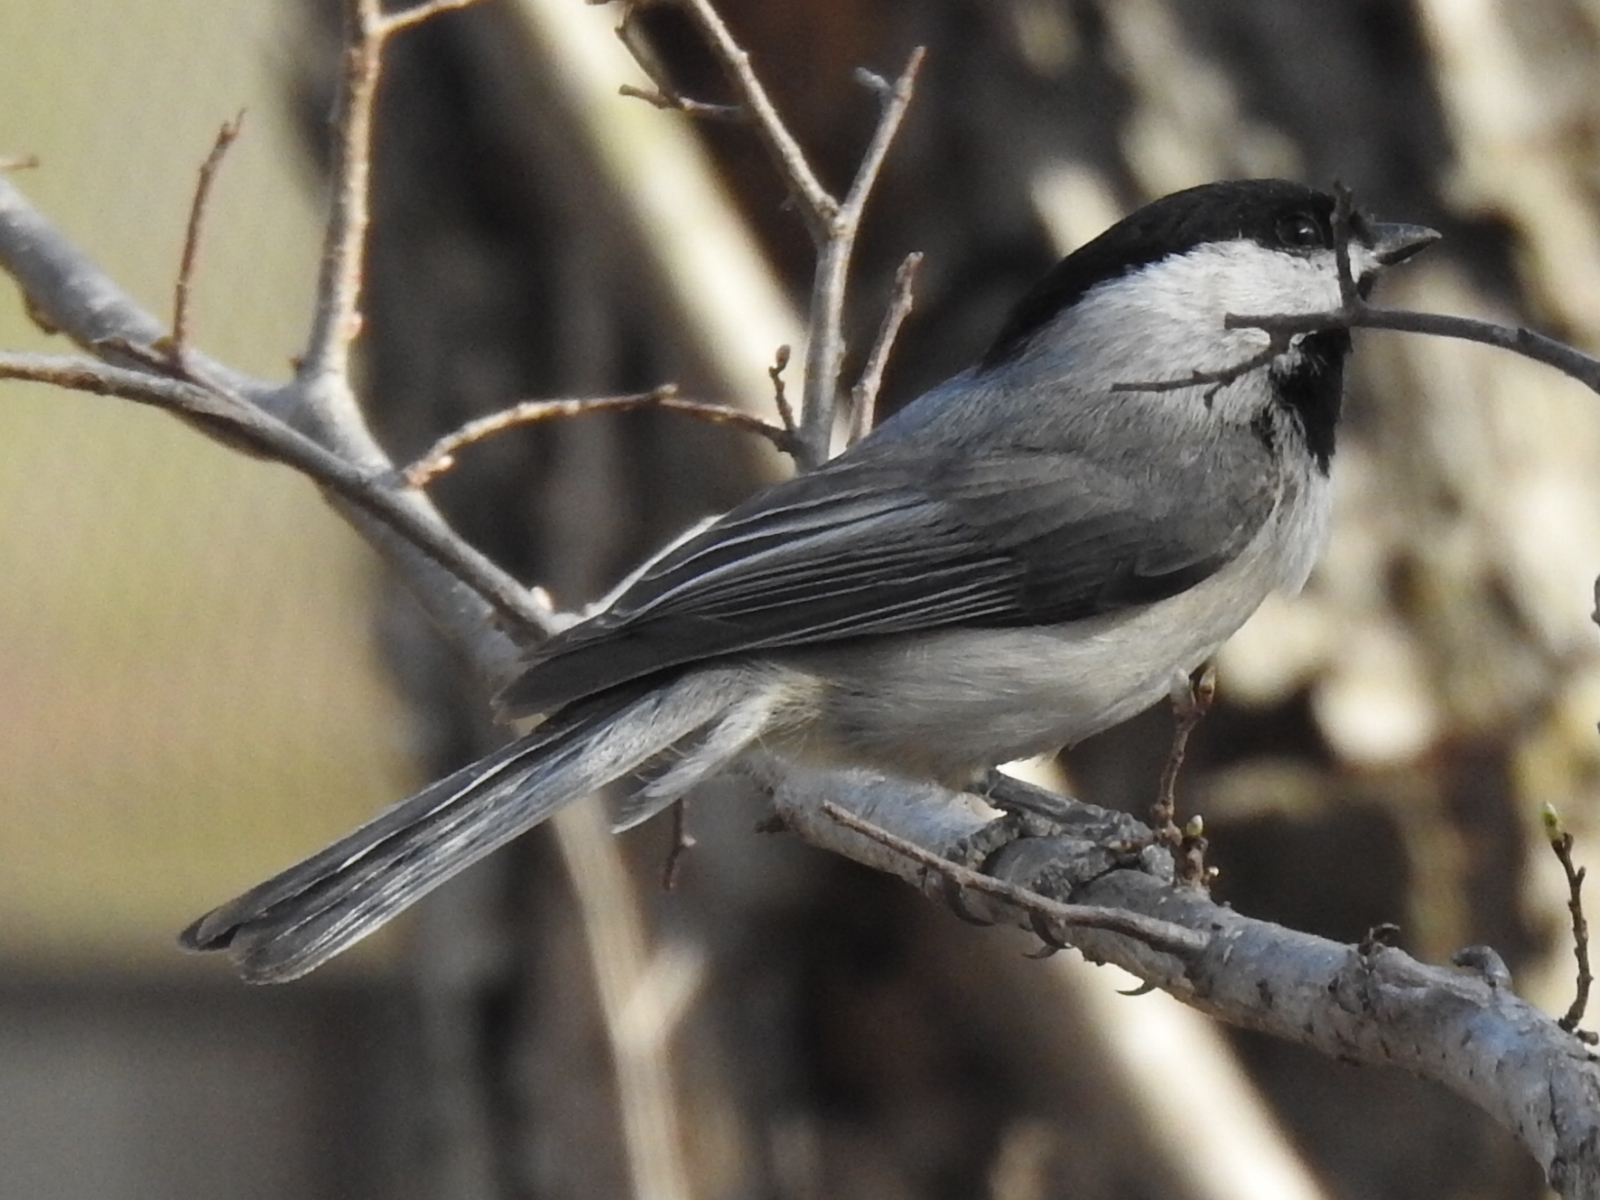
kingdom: Animalia
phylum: Chordata
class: Aves
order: Passeriformes
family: Paridae
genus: Poecile
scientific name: Poecile carolinensis
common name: Carolina chickadee
